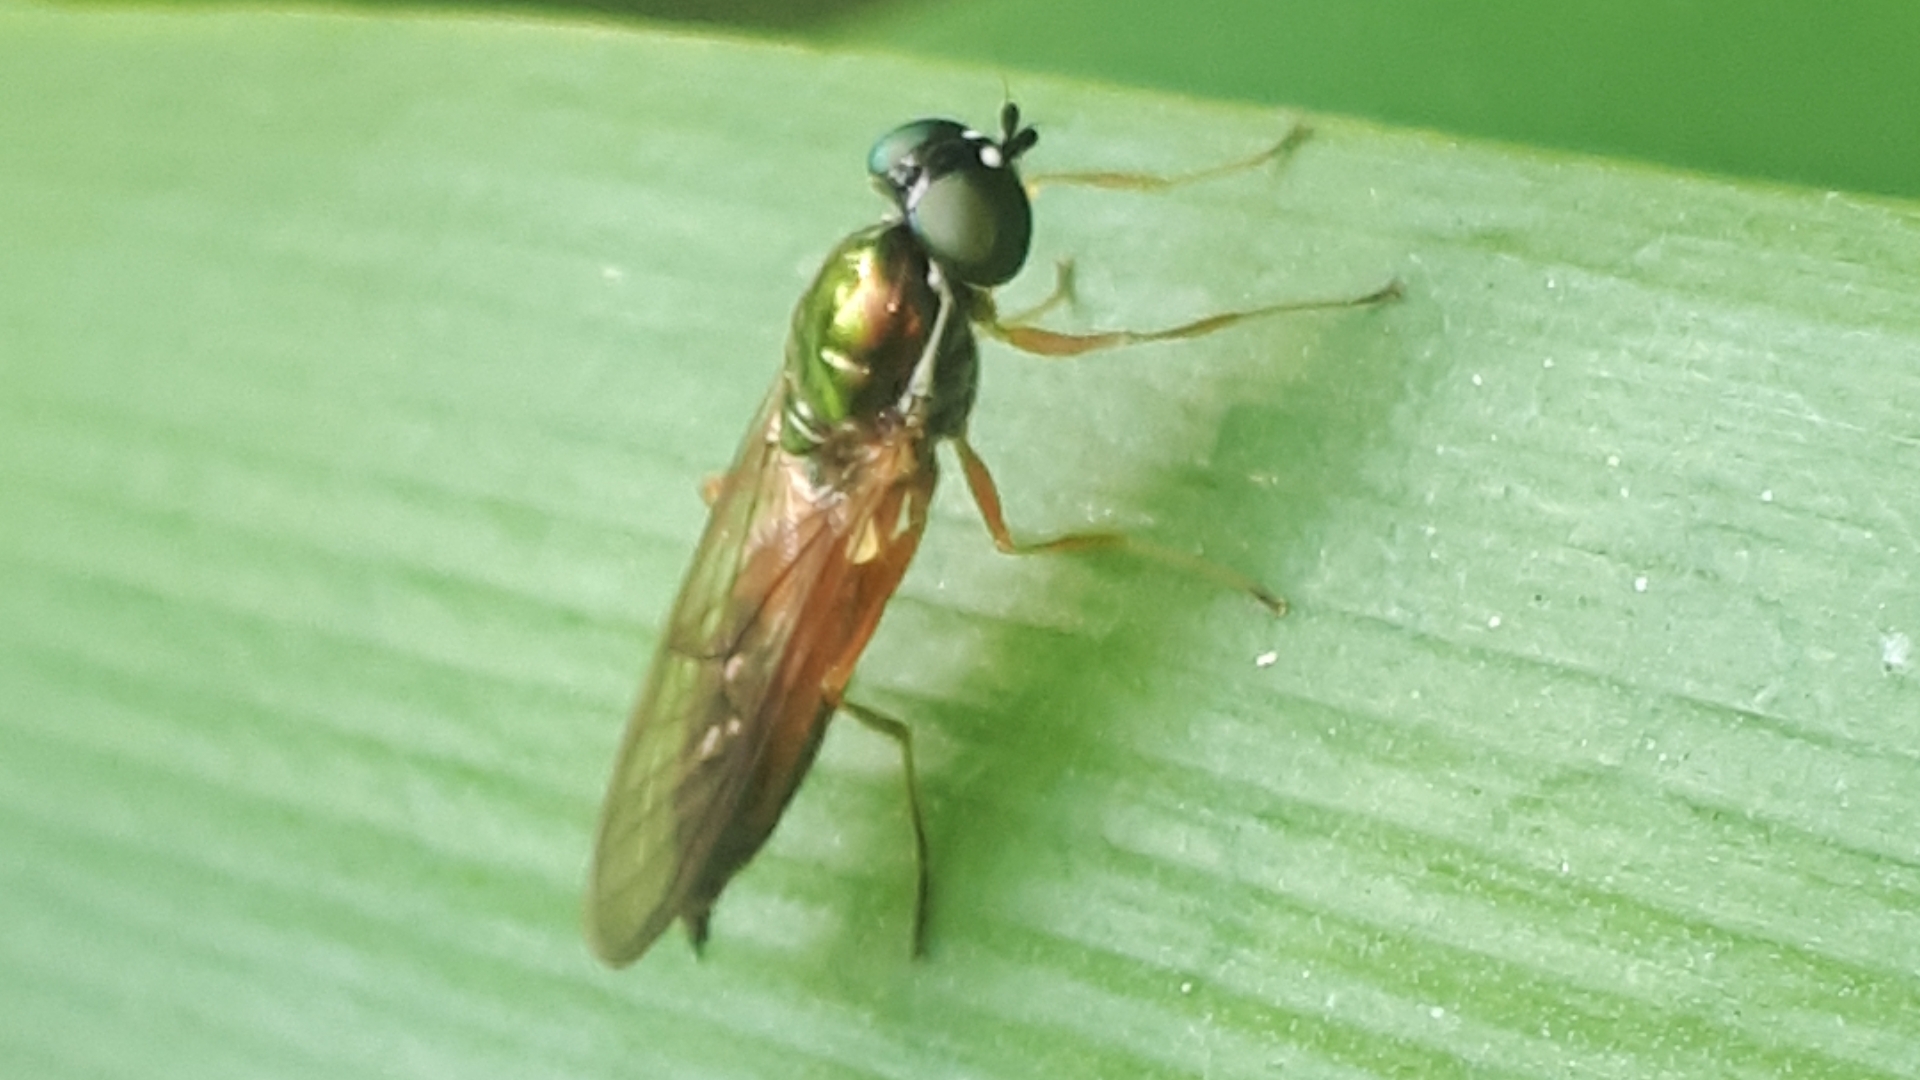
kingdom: Animalia
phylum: Arthropoda
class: Insecta
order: Diptera
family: Stratiomyidae
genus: Sargus
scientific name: Sargus bipunctatus
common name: Twin-spot centurion
